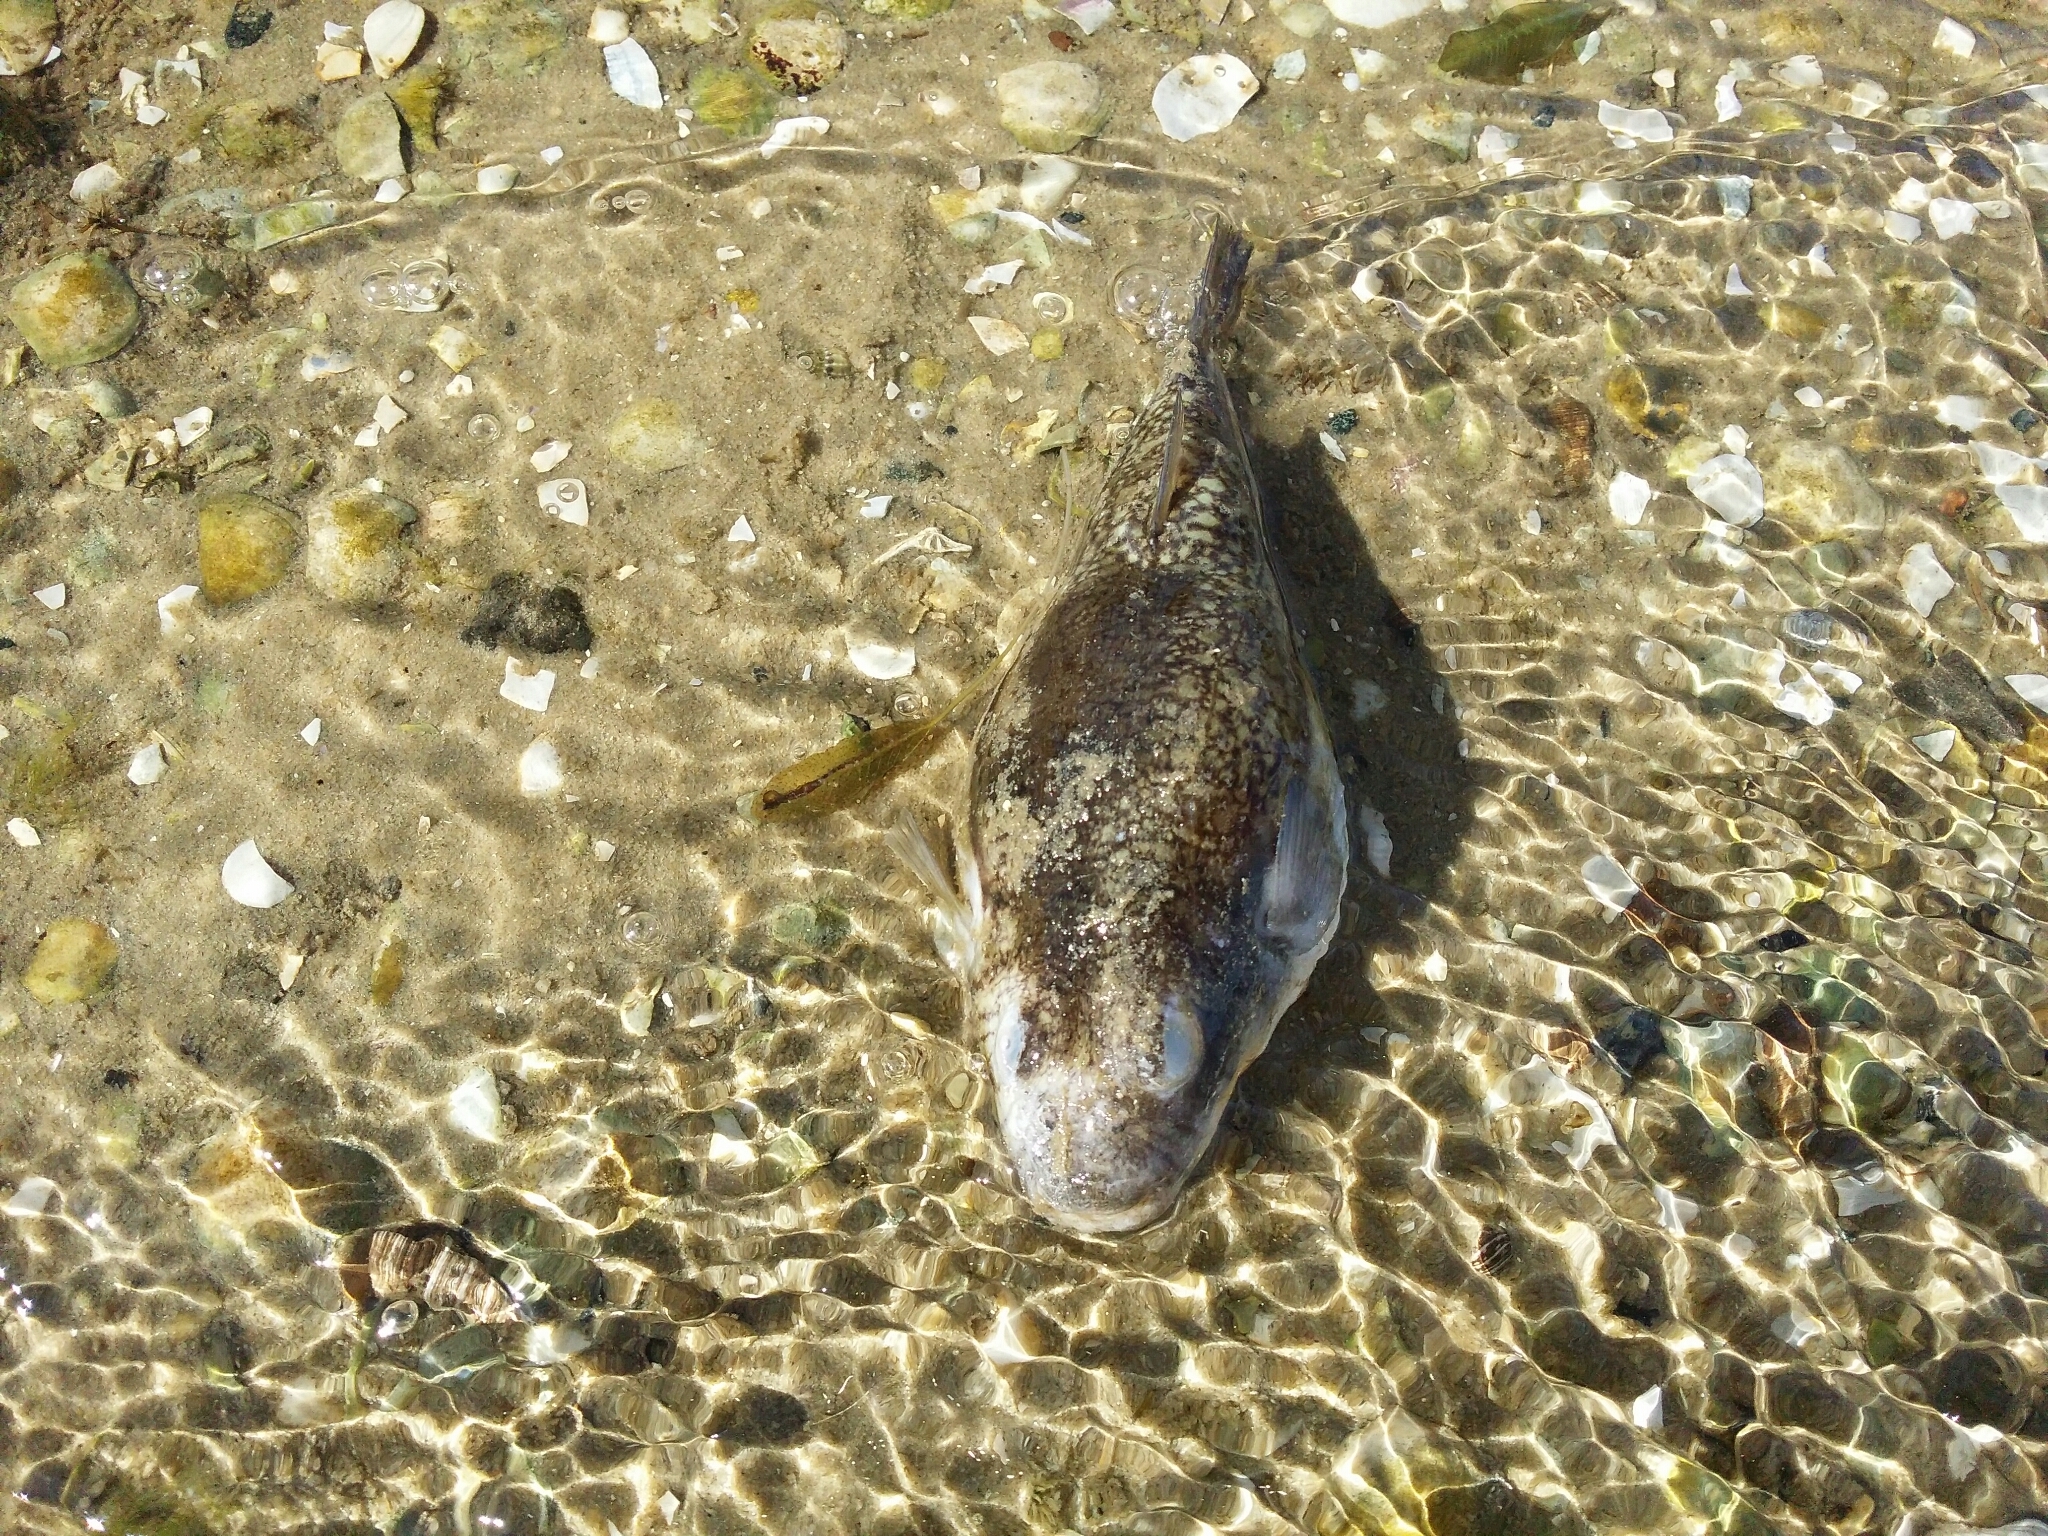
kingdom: Animalia
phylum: Chordata
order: Tetraodontiformes
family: Tetraodontidae
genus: Torquigener
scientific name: Torquigener pleurogramma
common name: Banded toadfish
